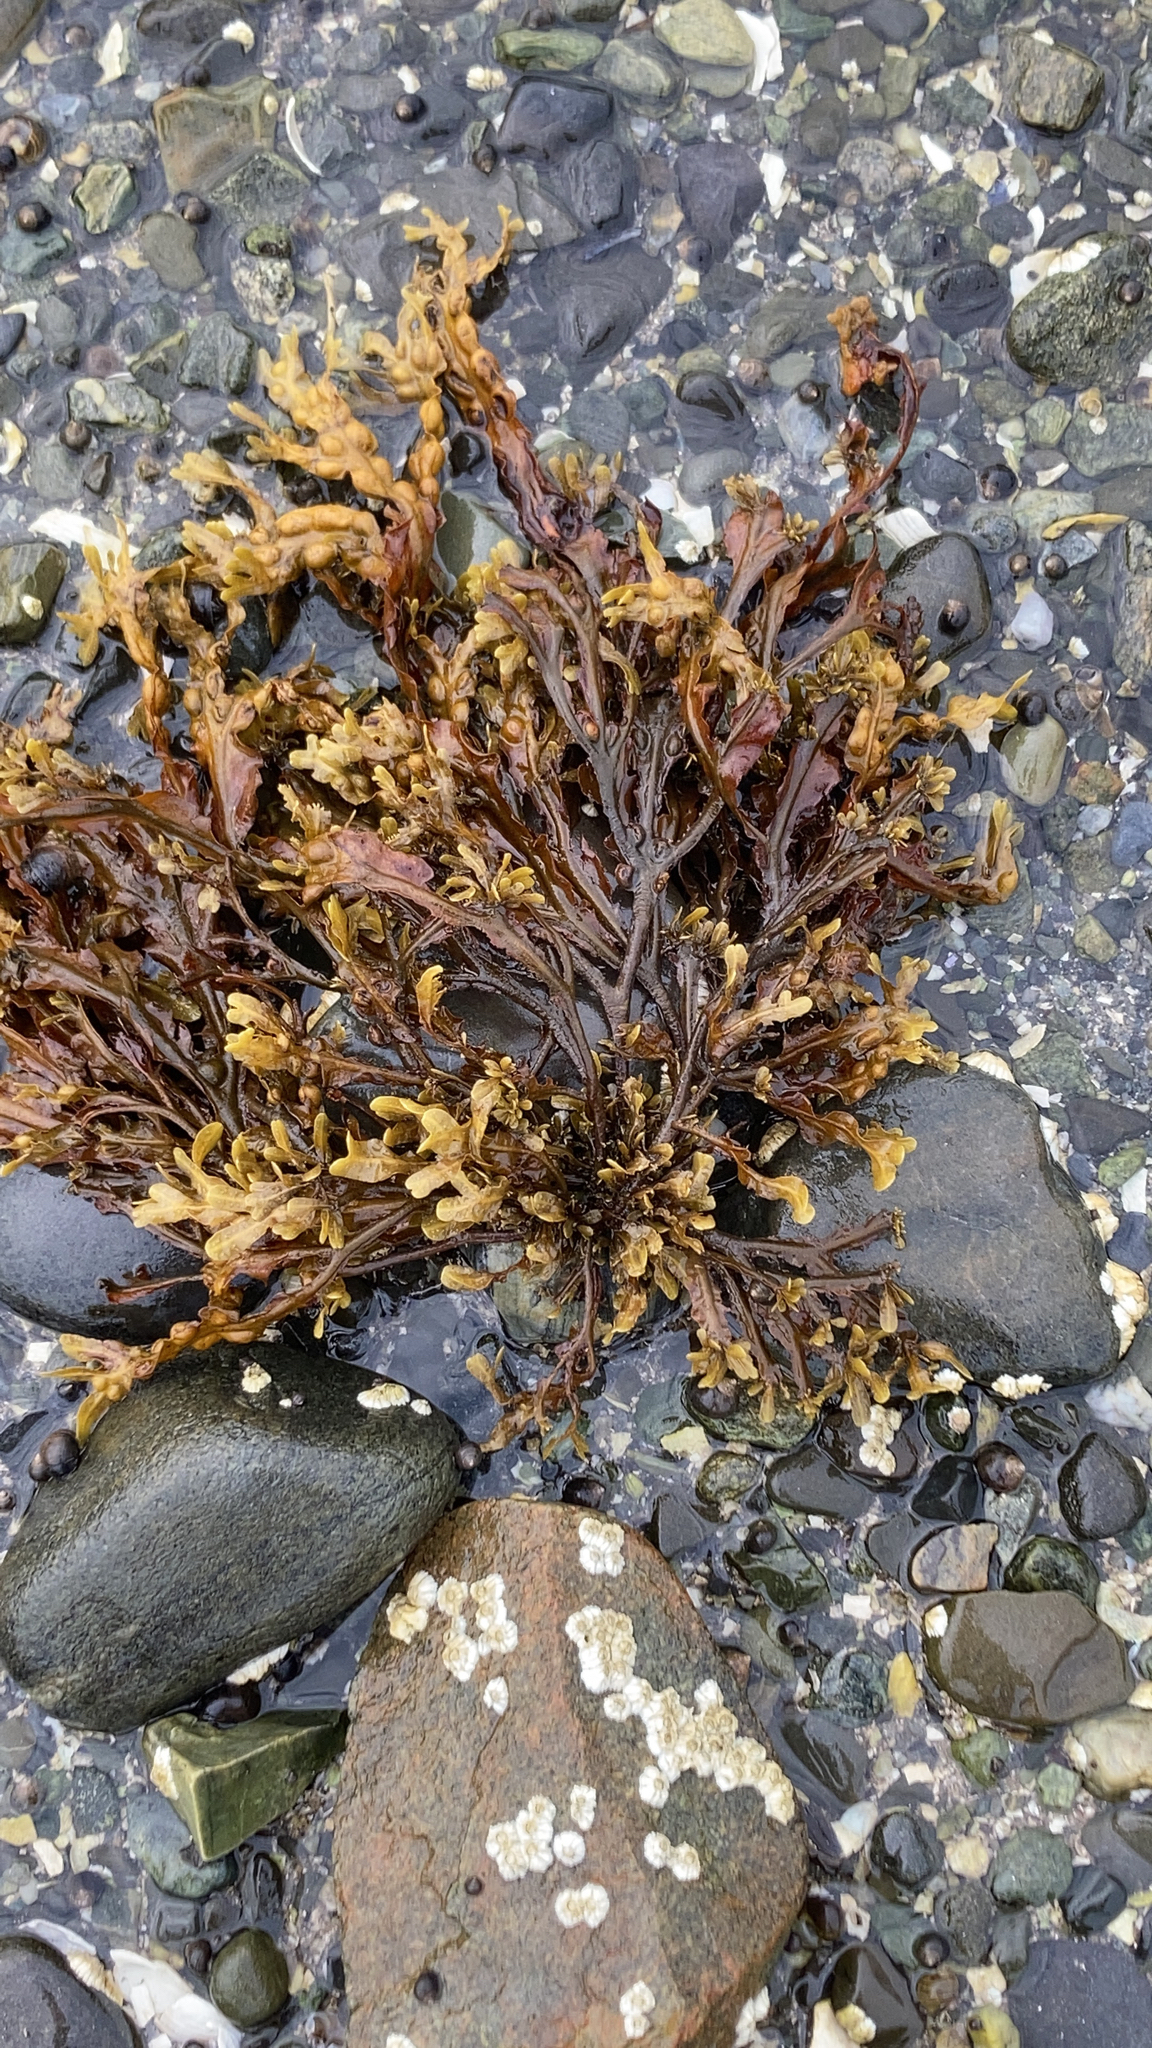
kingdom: Chromista
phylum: Ochrophyta
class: Phaeophyceae
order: Fucales
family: Fucaceae
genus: Fucus
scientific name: Fucus vesiculosus
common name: Bladder wrack
